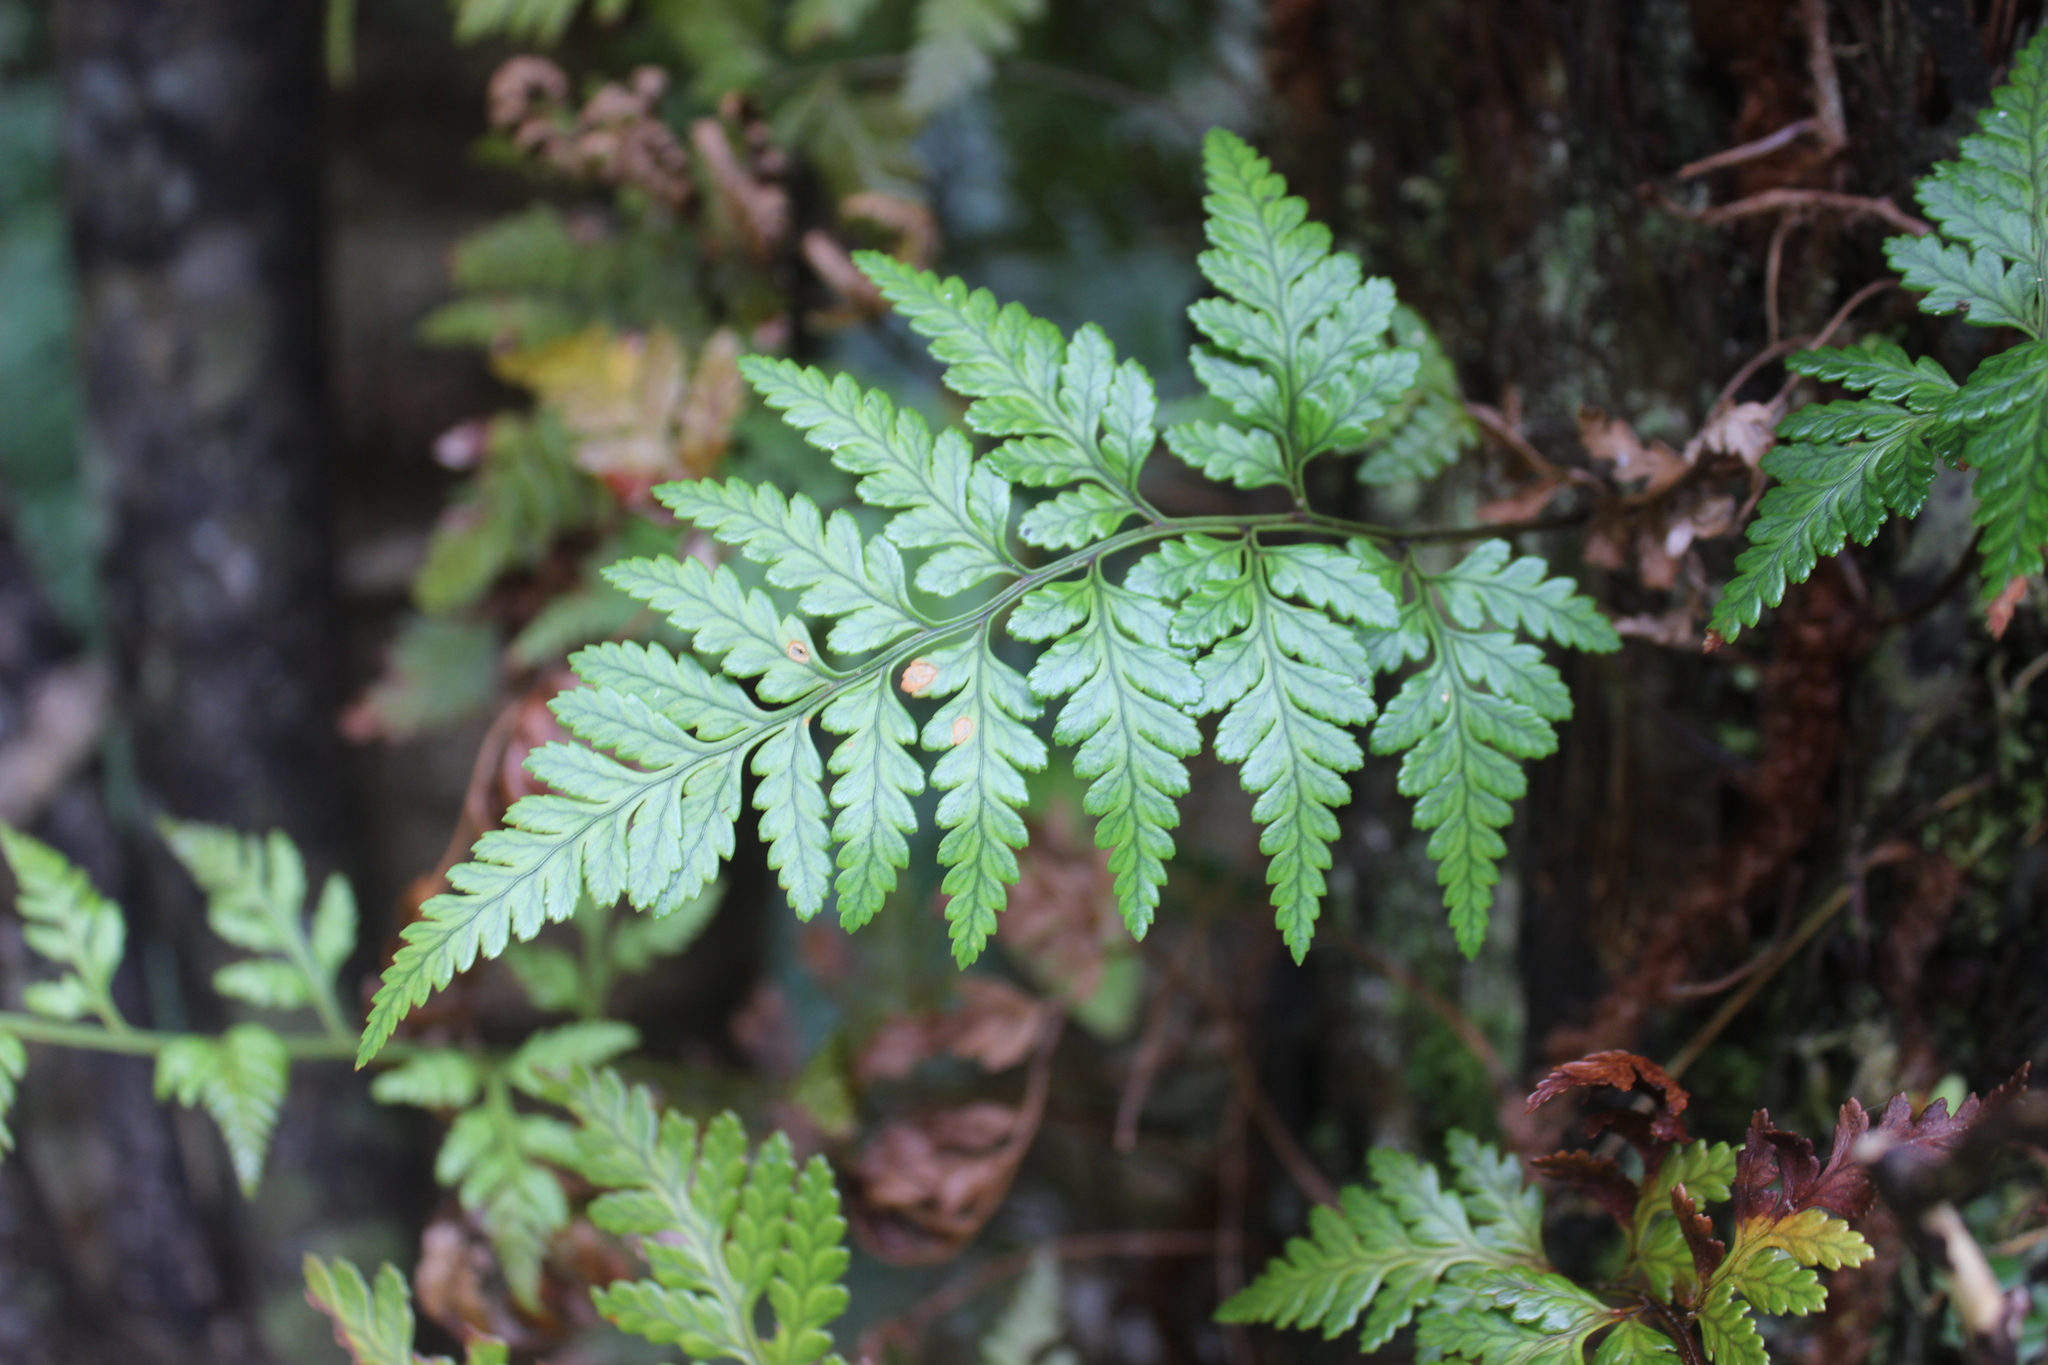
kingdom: Plantae
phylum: Tracheophyta
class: Polypodiopsida
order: Polypodiales
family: Dryopteridaceae
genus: Rumohra
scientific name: Rumohra adiantiformis
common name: Leather fern
